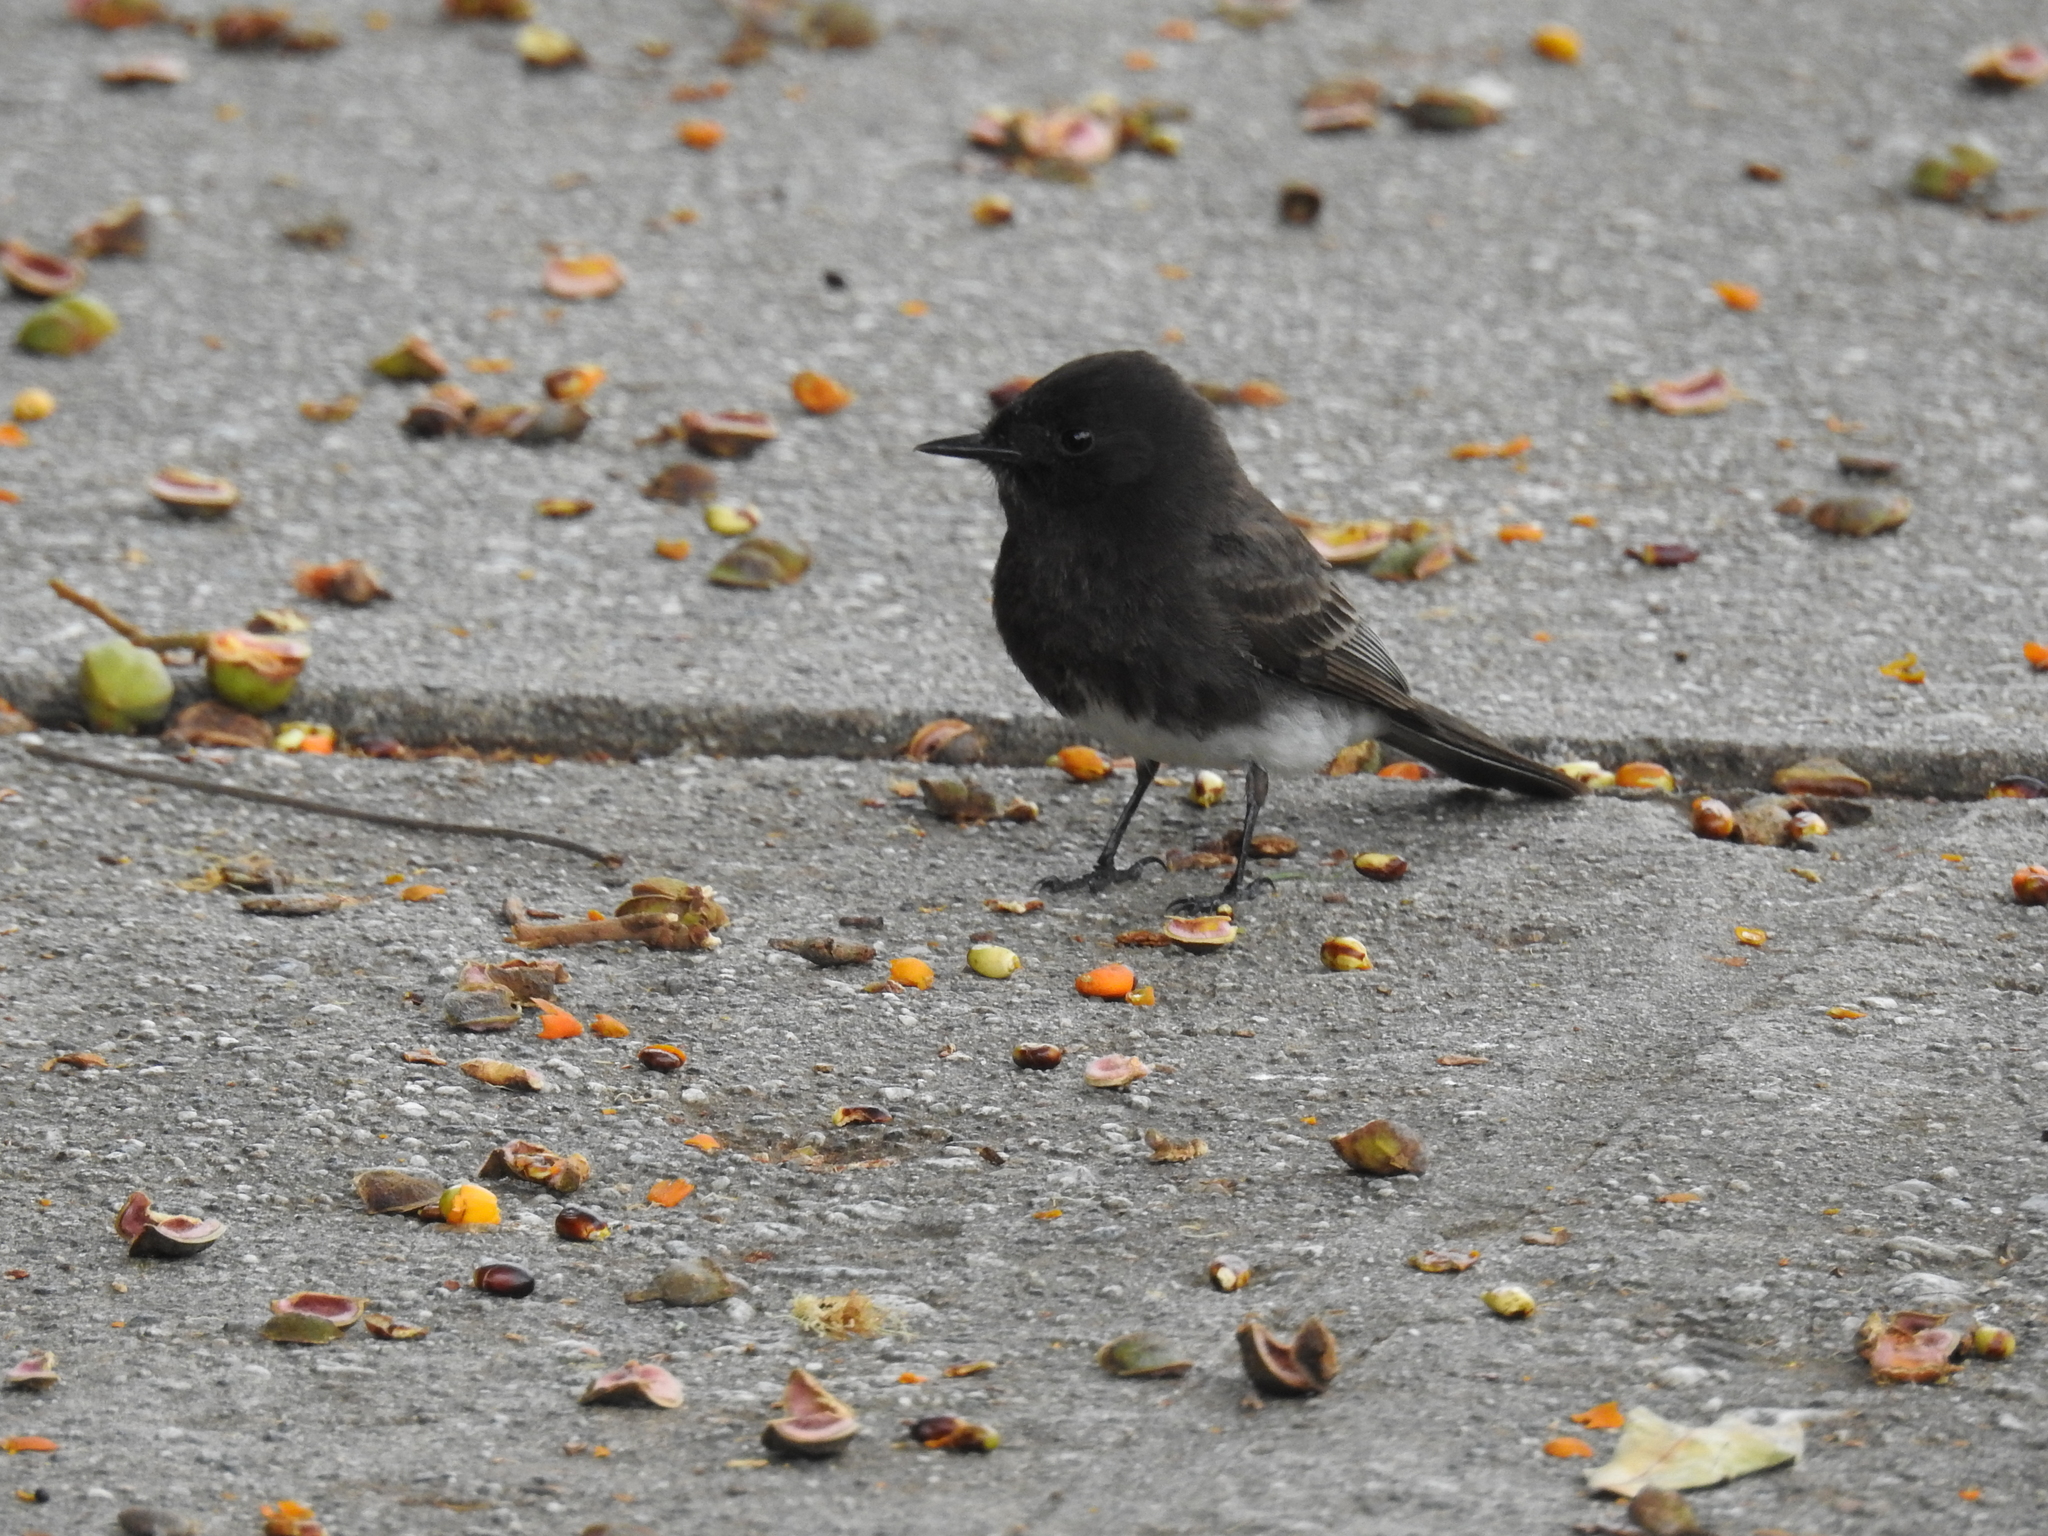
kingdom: Animalia
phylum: Chordata
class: Aves
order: Passeriformes
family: Tyrannidae
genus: Sayornis
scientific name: Sayornis nigricans
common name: Black phoebe
